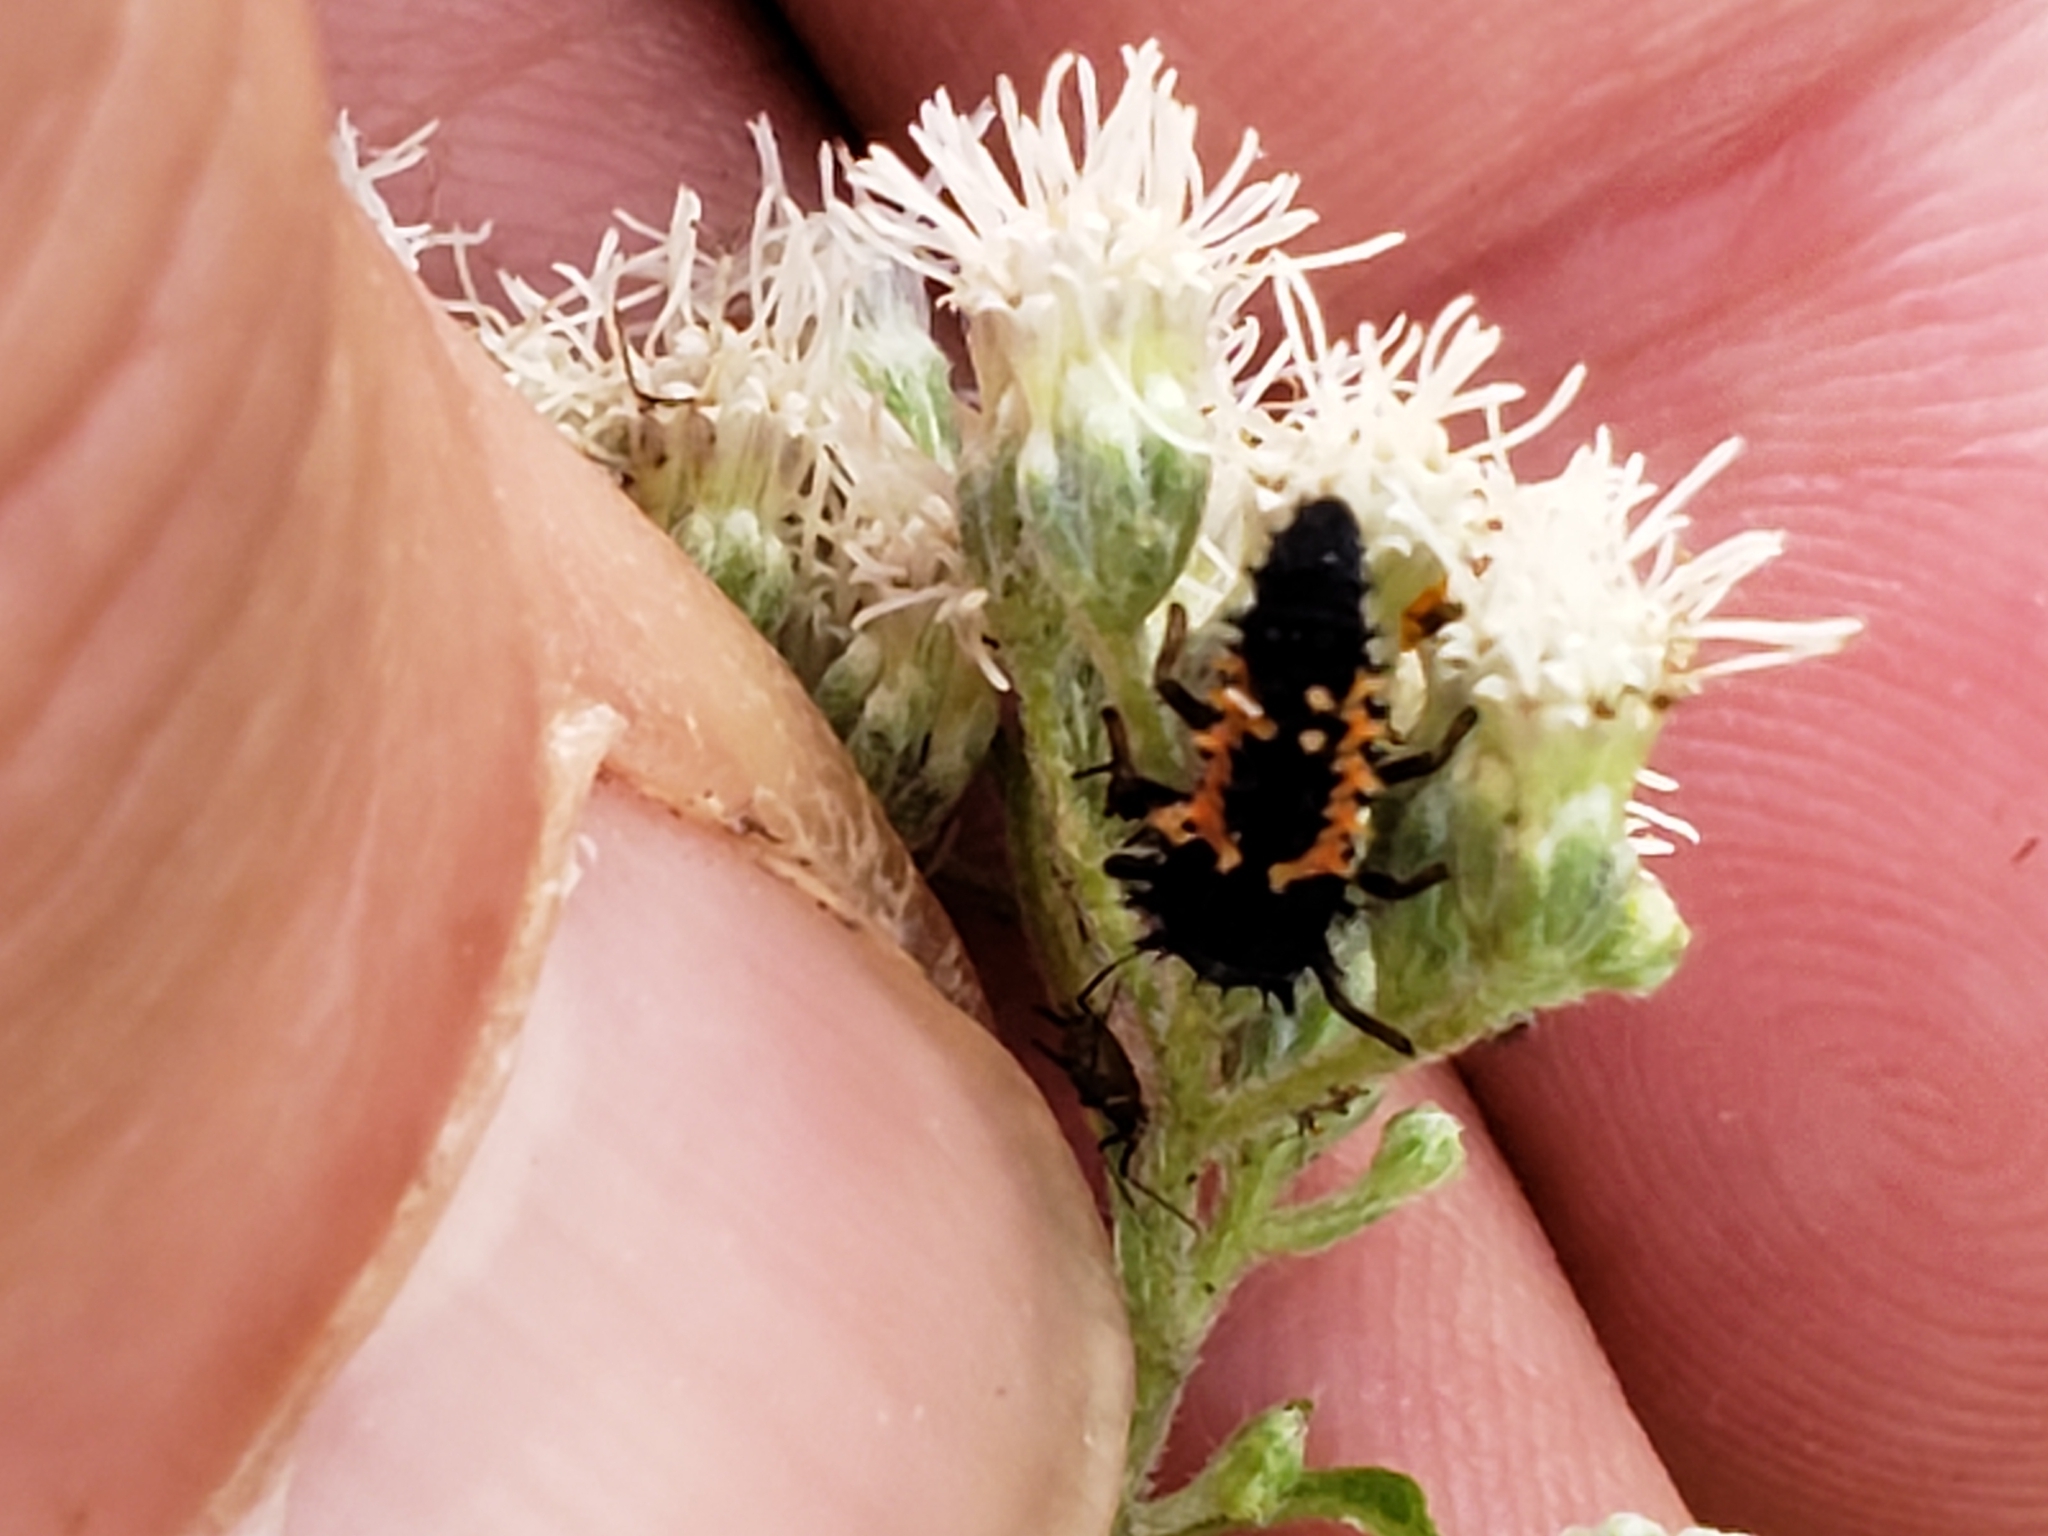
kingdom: Animalia
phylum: Arthropoda
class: Insecta
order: Coleoptera
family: Coccinellidae
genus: Harmonia
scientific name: Harmonia axyridis
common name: Harlequin ladybird
